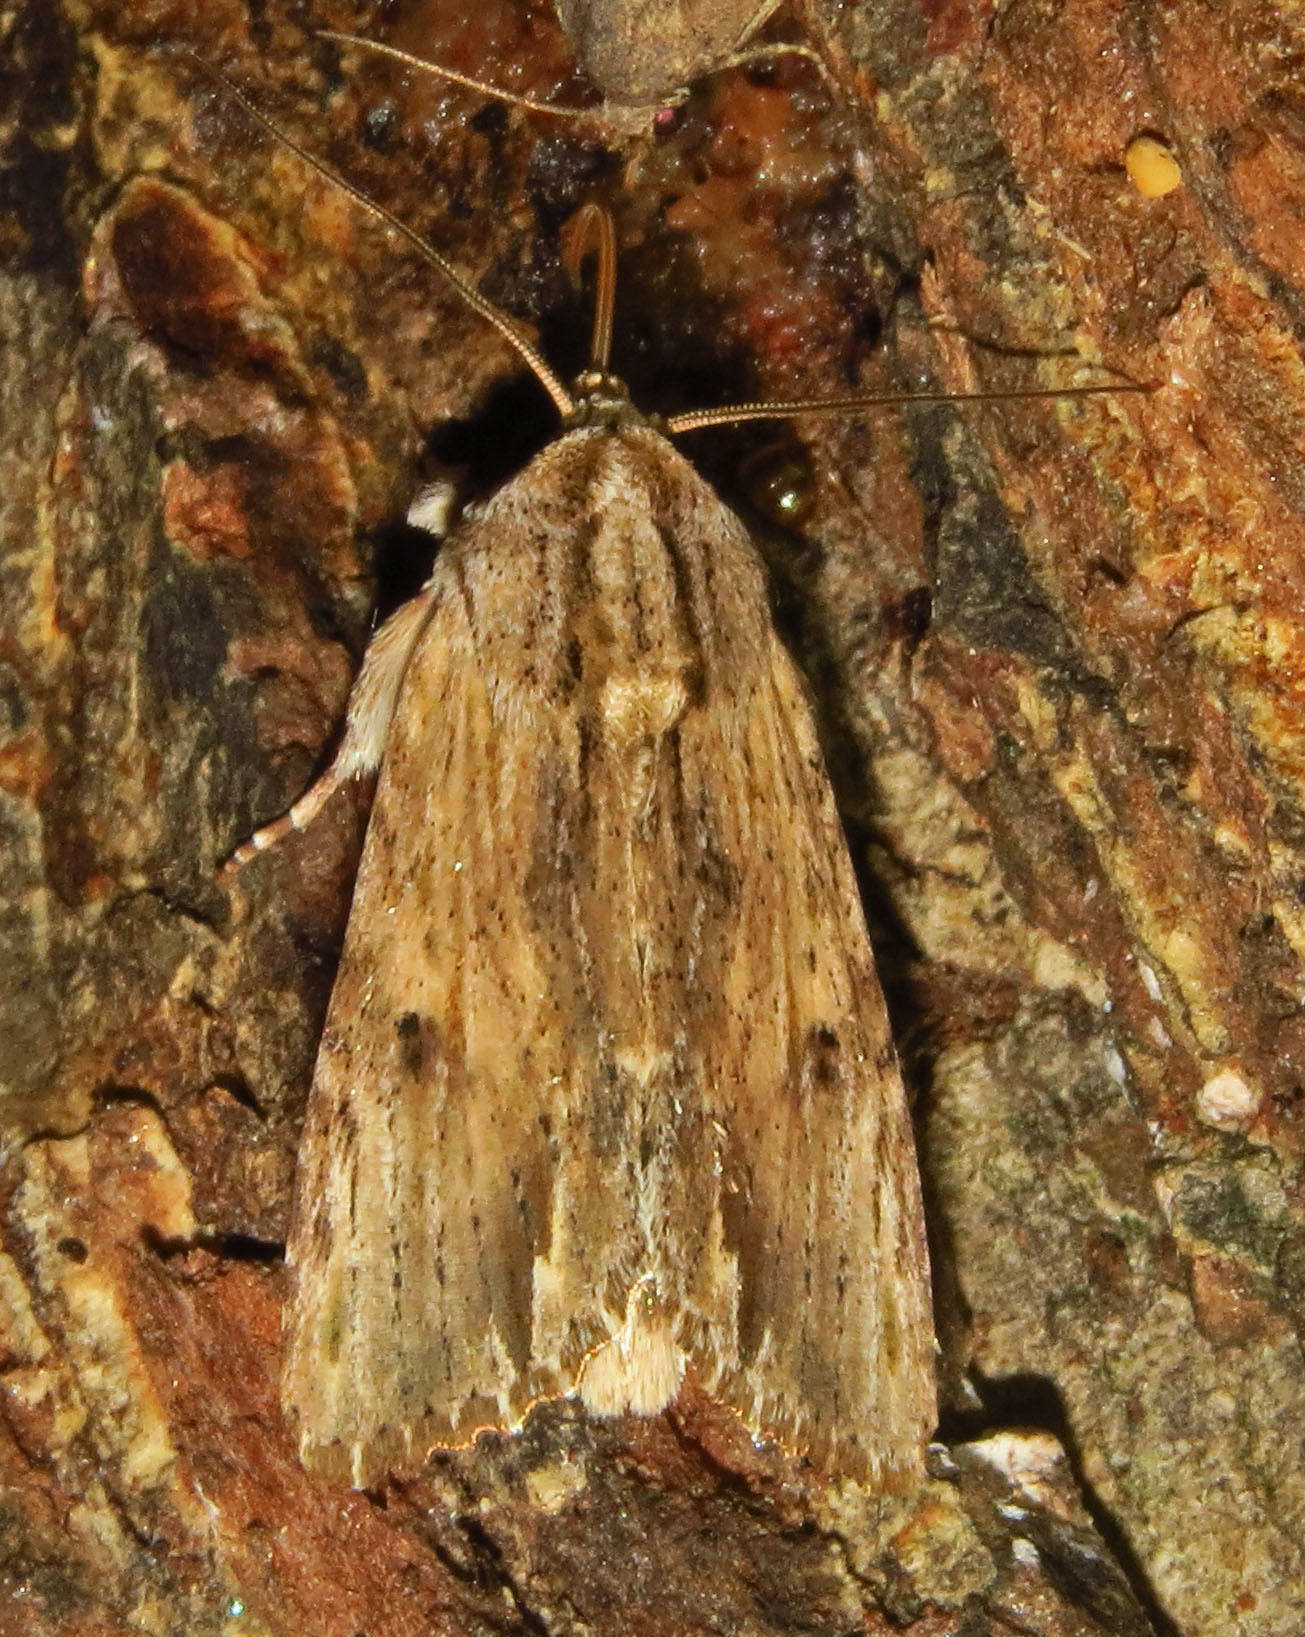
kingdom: Animalia
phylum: Arthropoda
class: Insecta
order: Lepidoptera
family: Noctuidae
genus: Spodoptera
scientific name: Spodoptera eridania
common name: Southern army worm
